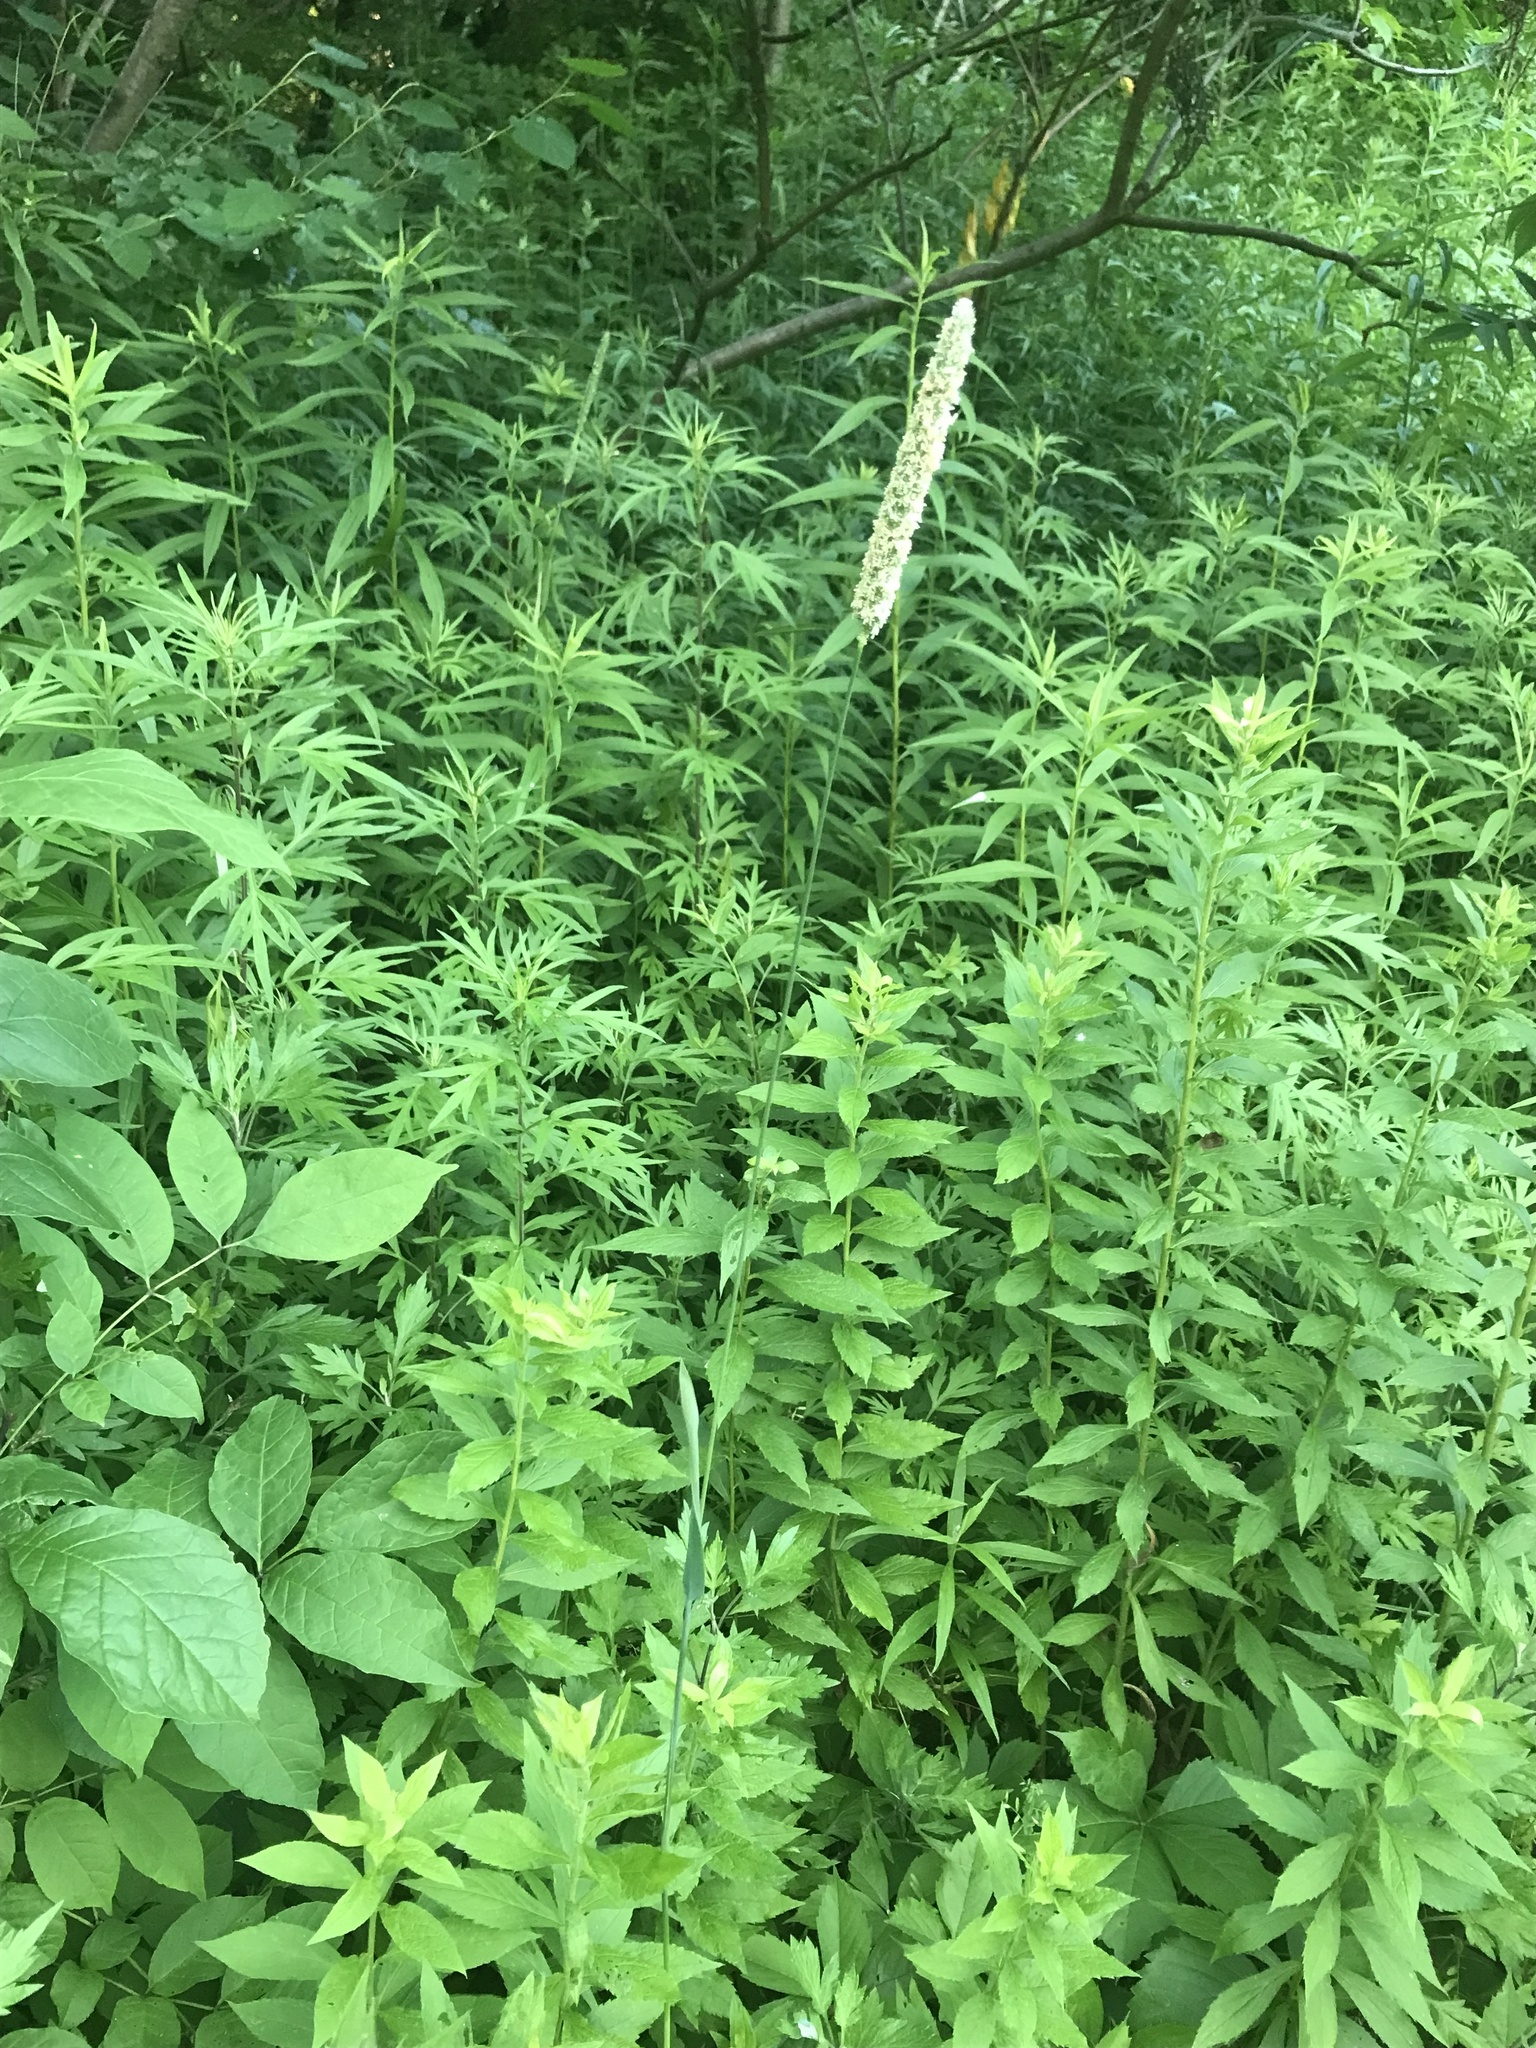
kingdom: Plantae
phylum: Tracheophyta
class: Liliopsida
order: Poales
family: Poaceae
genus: Phleum
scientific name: Phleum pratense
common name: Timothy grass
